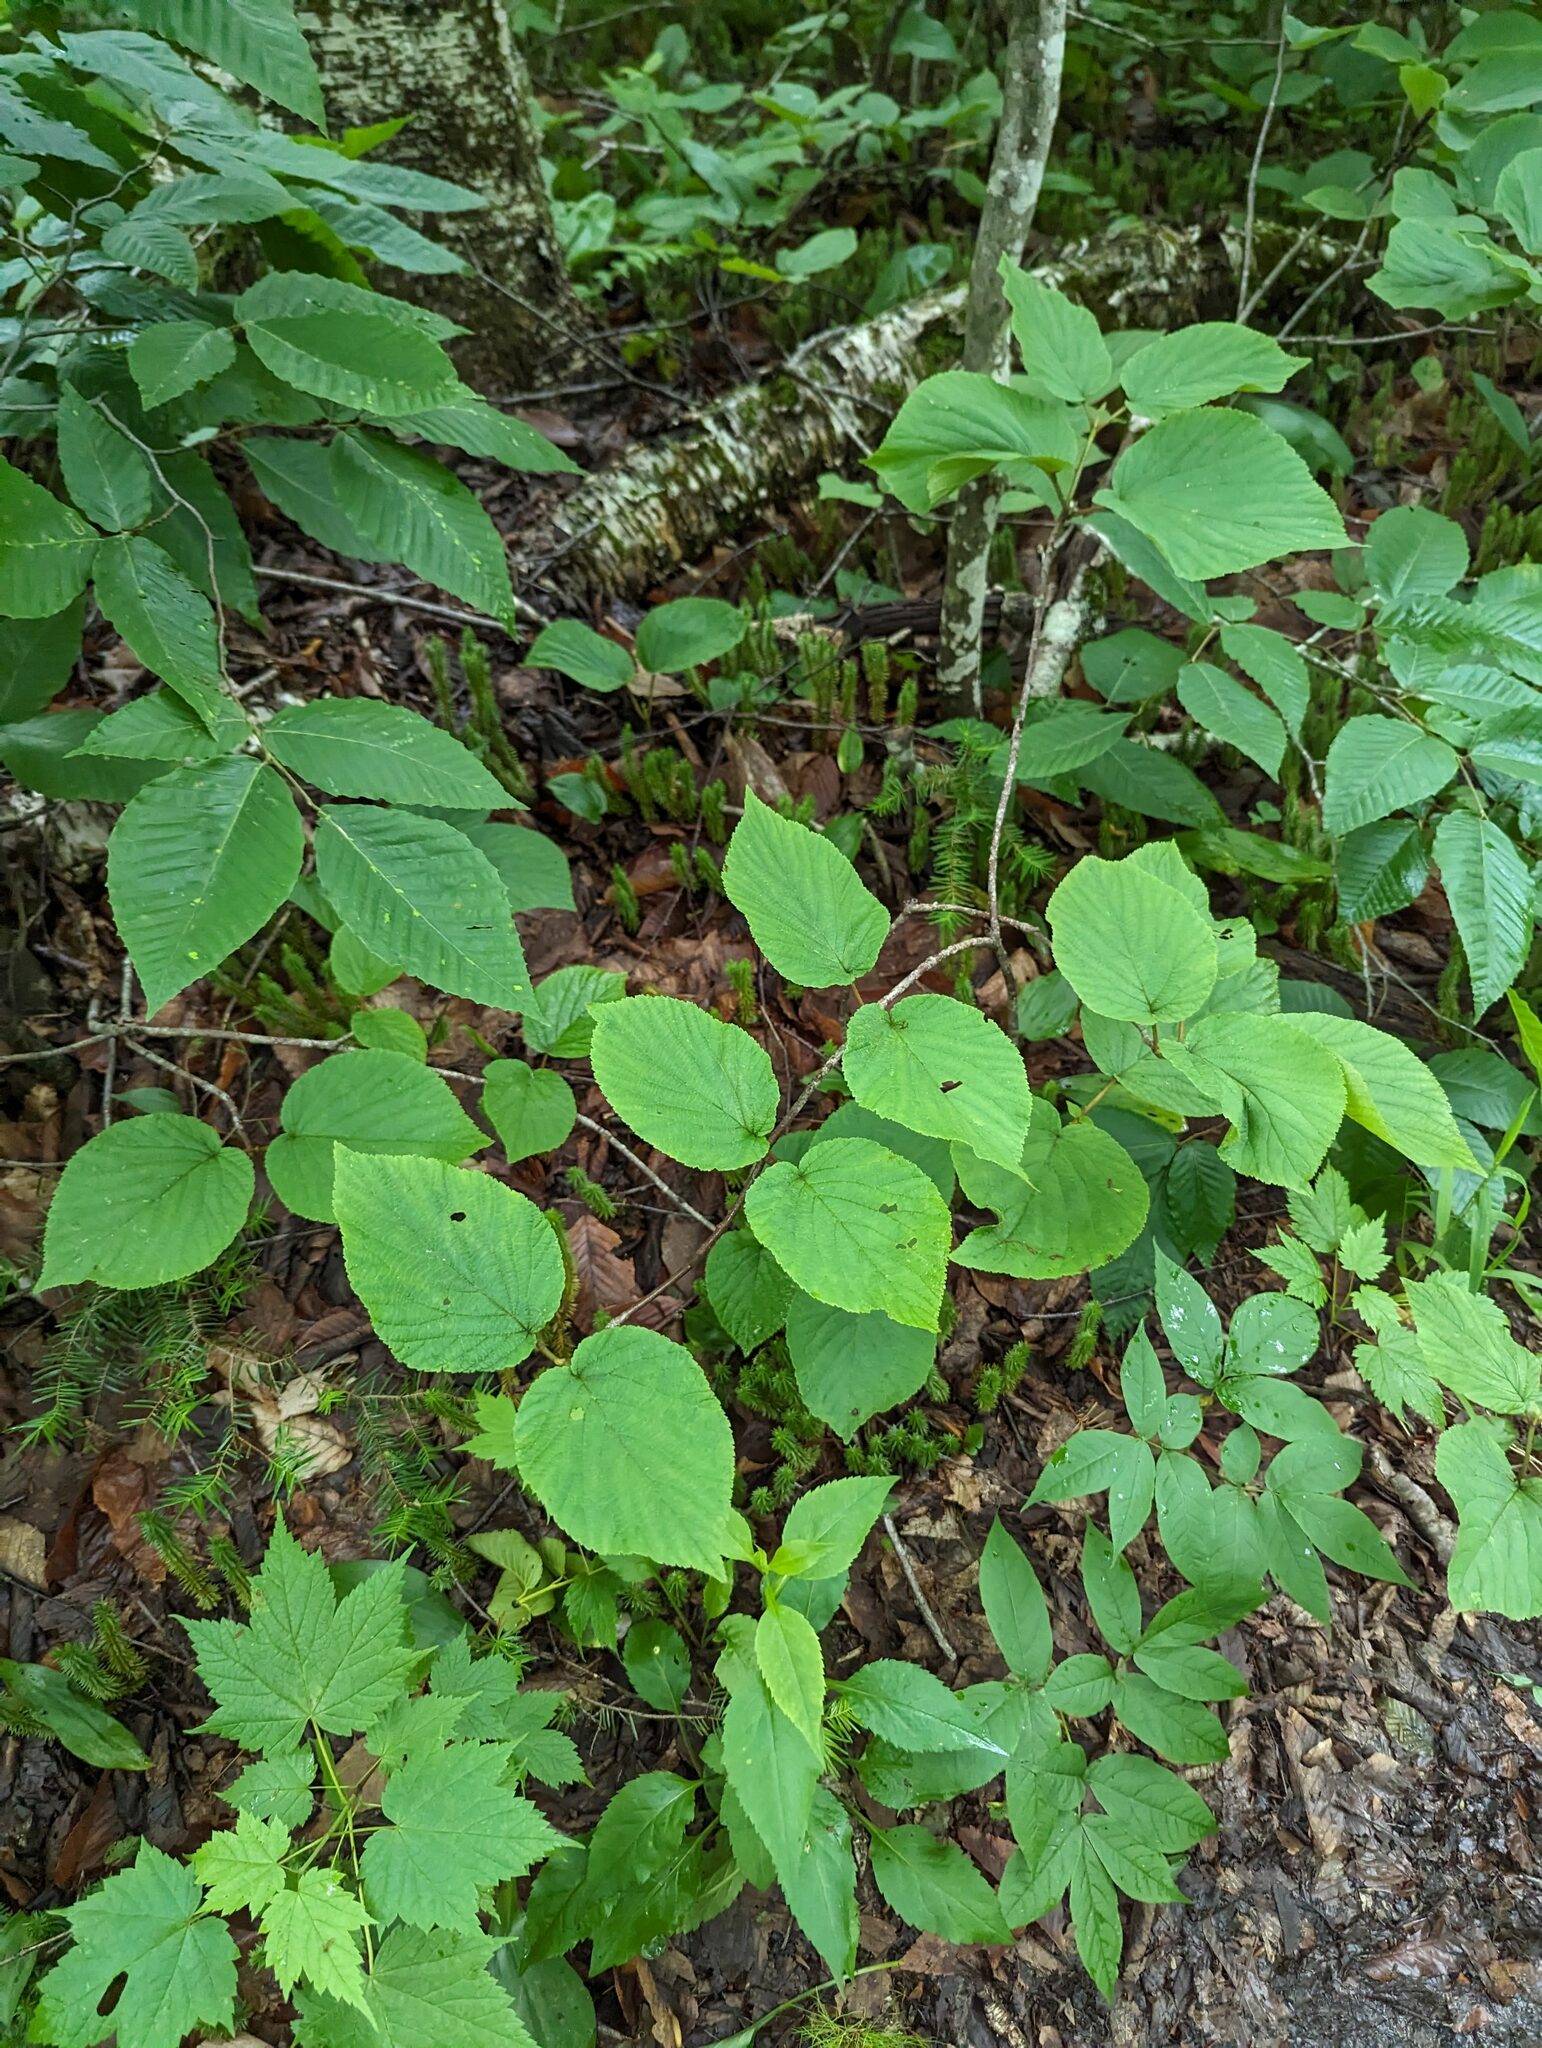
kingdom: Plantae
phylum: Tracheophyta
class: Magnoliopsida
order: Dipsacales
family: Viburnaceae
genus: Viburnum
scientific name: Viburnum lantanoides
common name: Hobblebush
